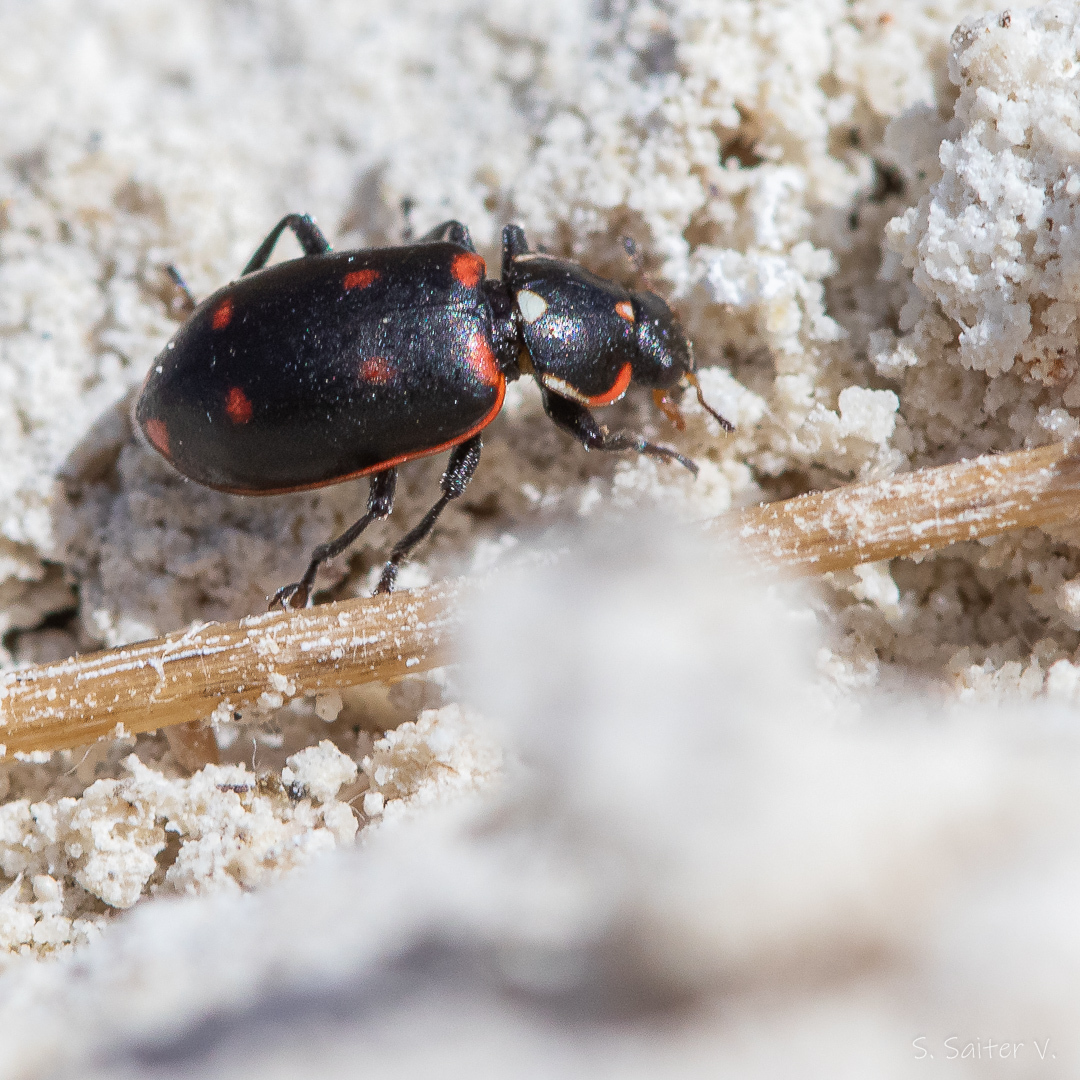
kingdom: Animalia
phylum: Arthropoda
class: Insecta
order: Coleoptera
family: Coccinellidae
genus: Eriopis
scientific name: Eriopis magellanica
